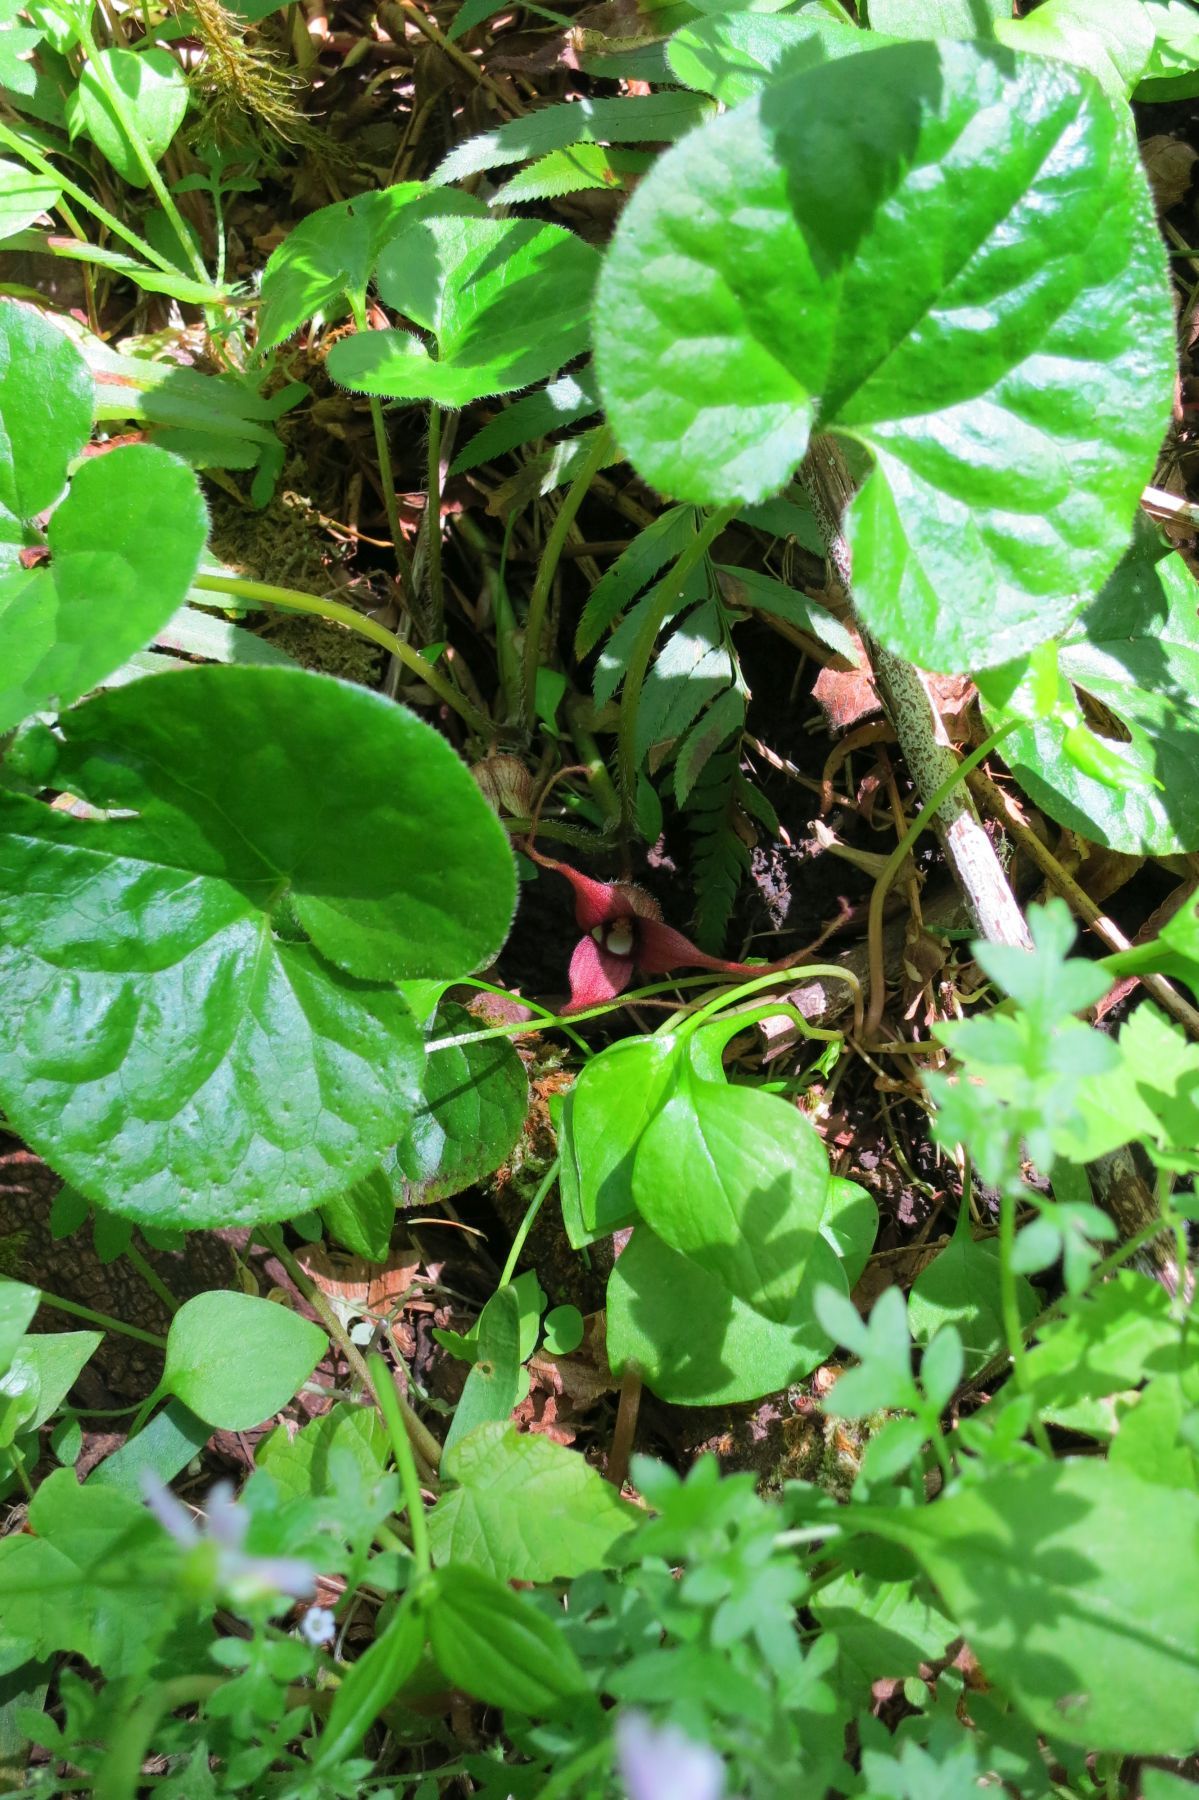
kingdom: Plantae
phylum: Tracheophyta
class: Magnoliopsida
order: Piperales
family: Aristolochiaceae
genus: Asarum
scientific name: Asarum caudatum
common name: Wild ginger
